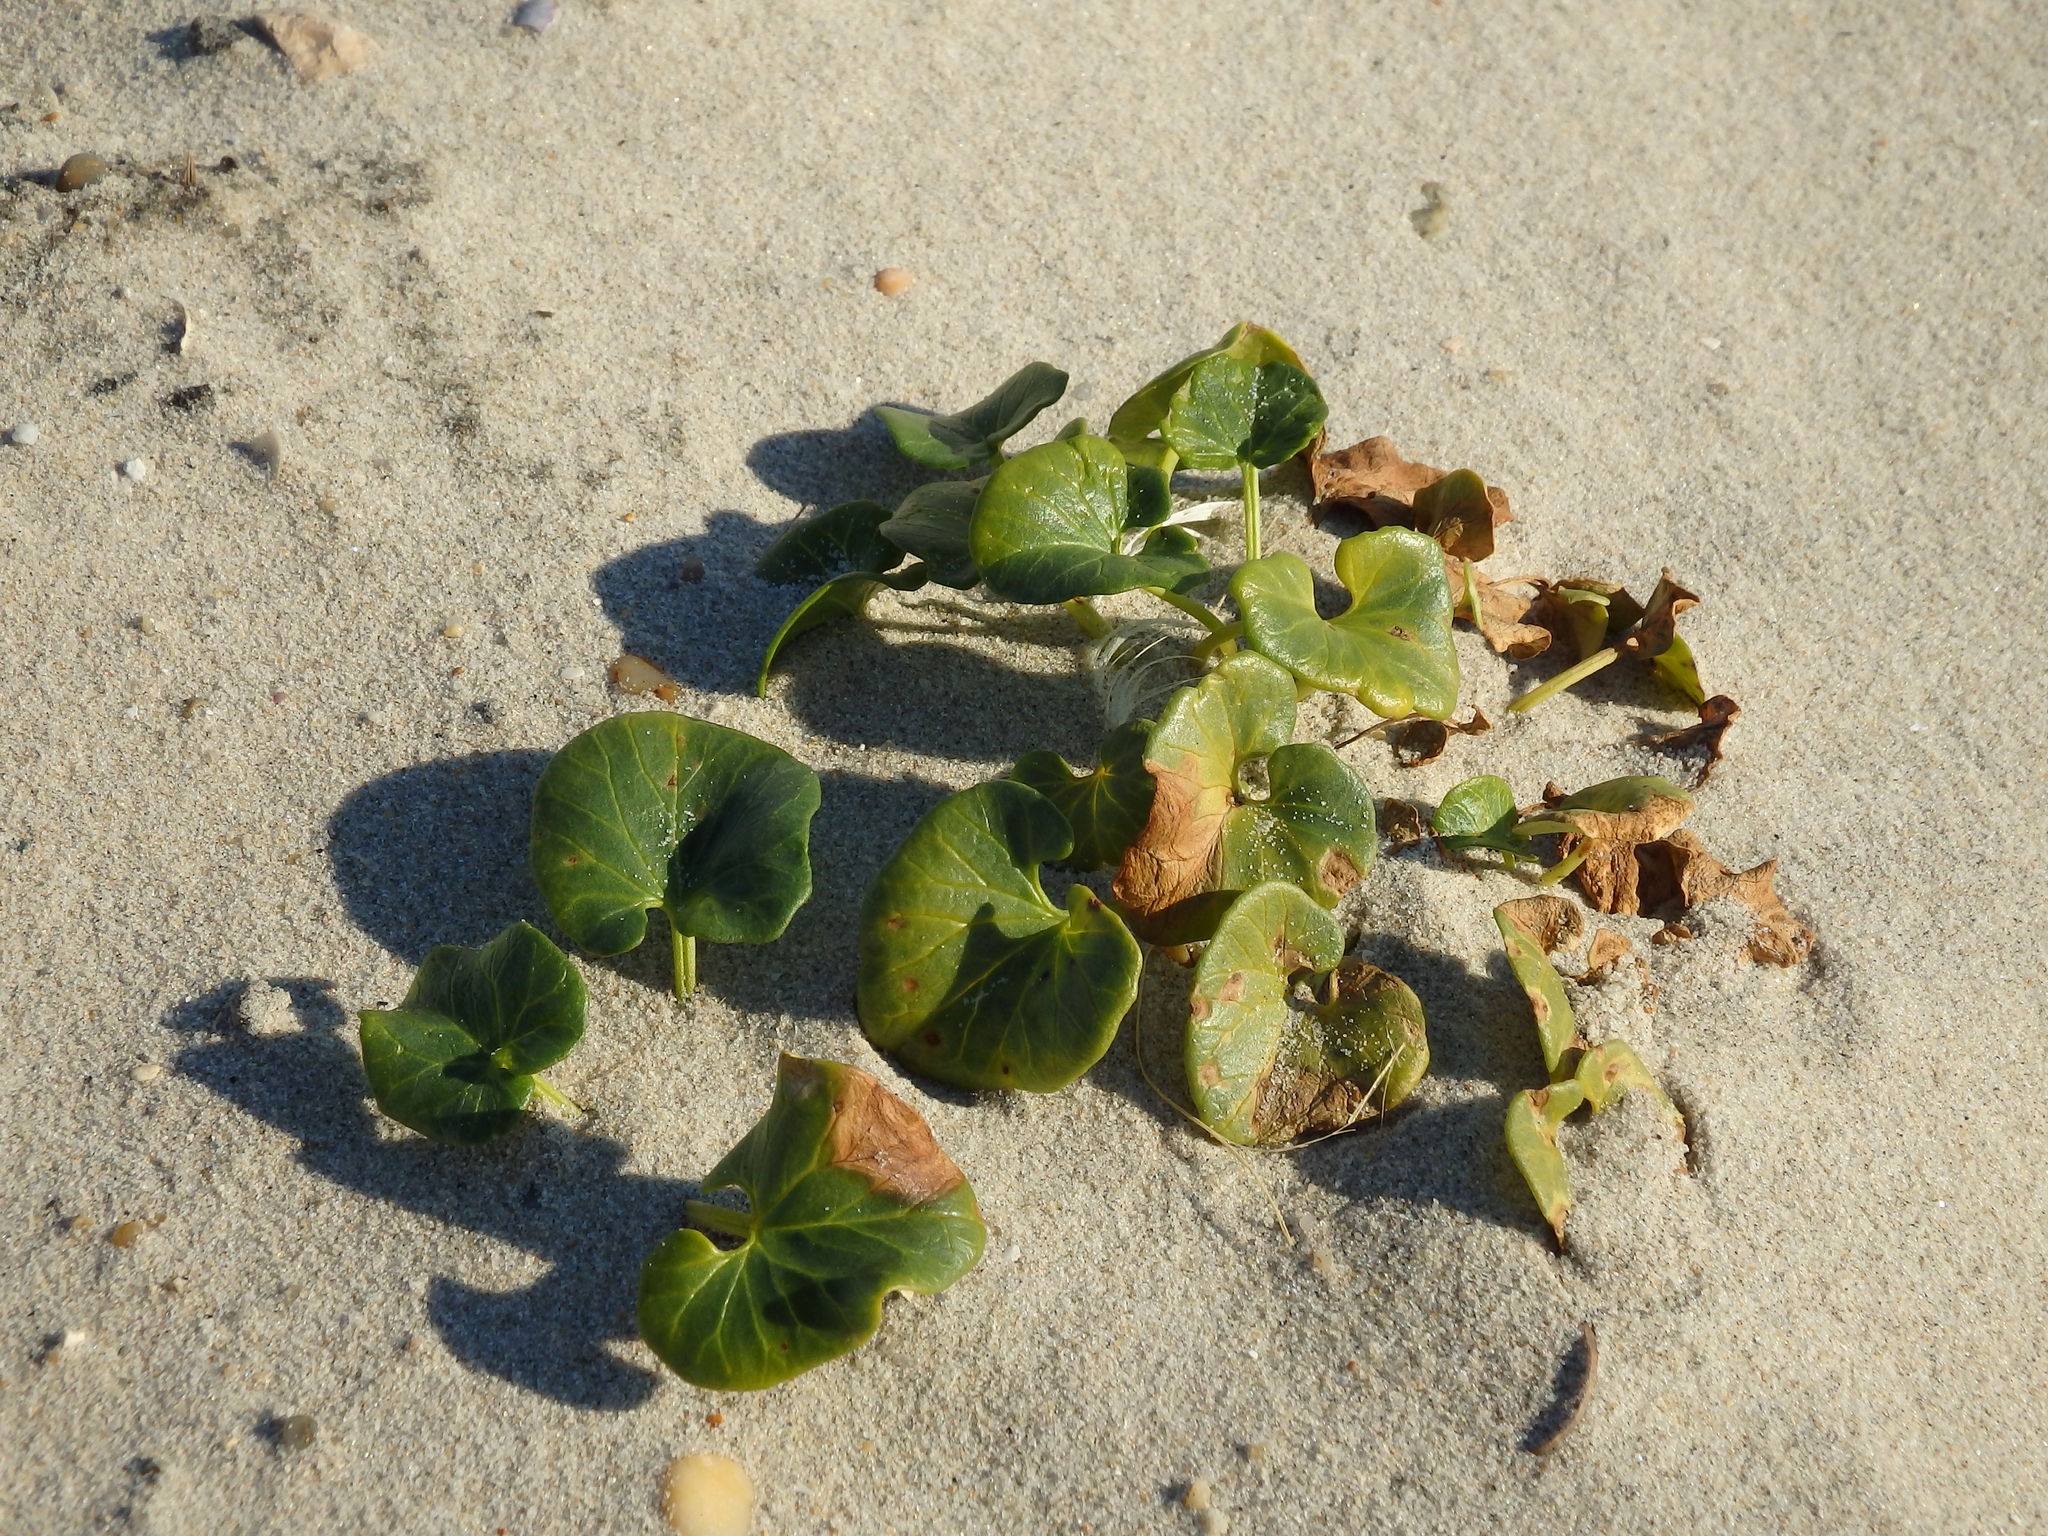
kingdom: Plantae
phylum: Tracheophyta
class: Magnoliopsida
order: Solanales
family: Convolvulaceae
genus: Calystegia
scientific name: Calystegia soldanella
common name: Sea bindweed
